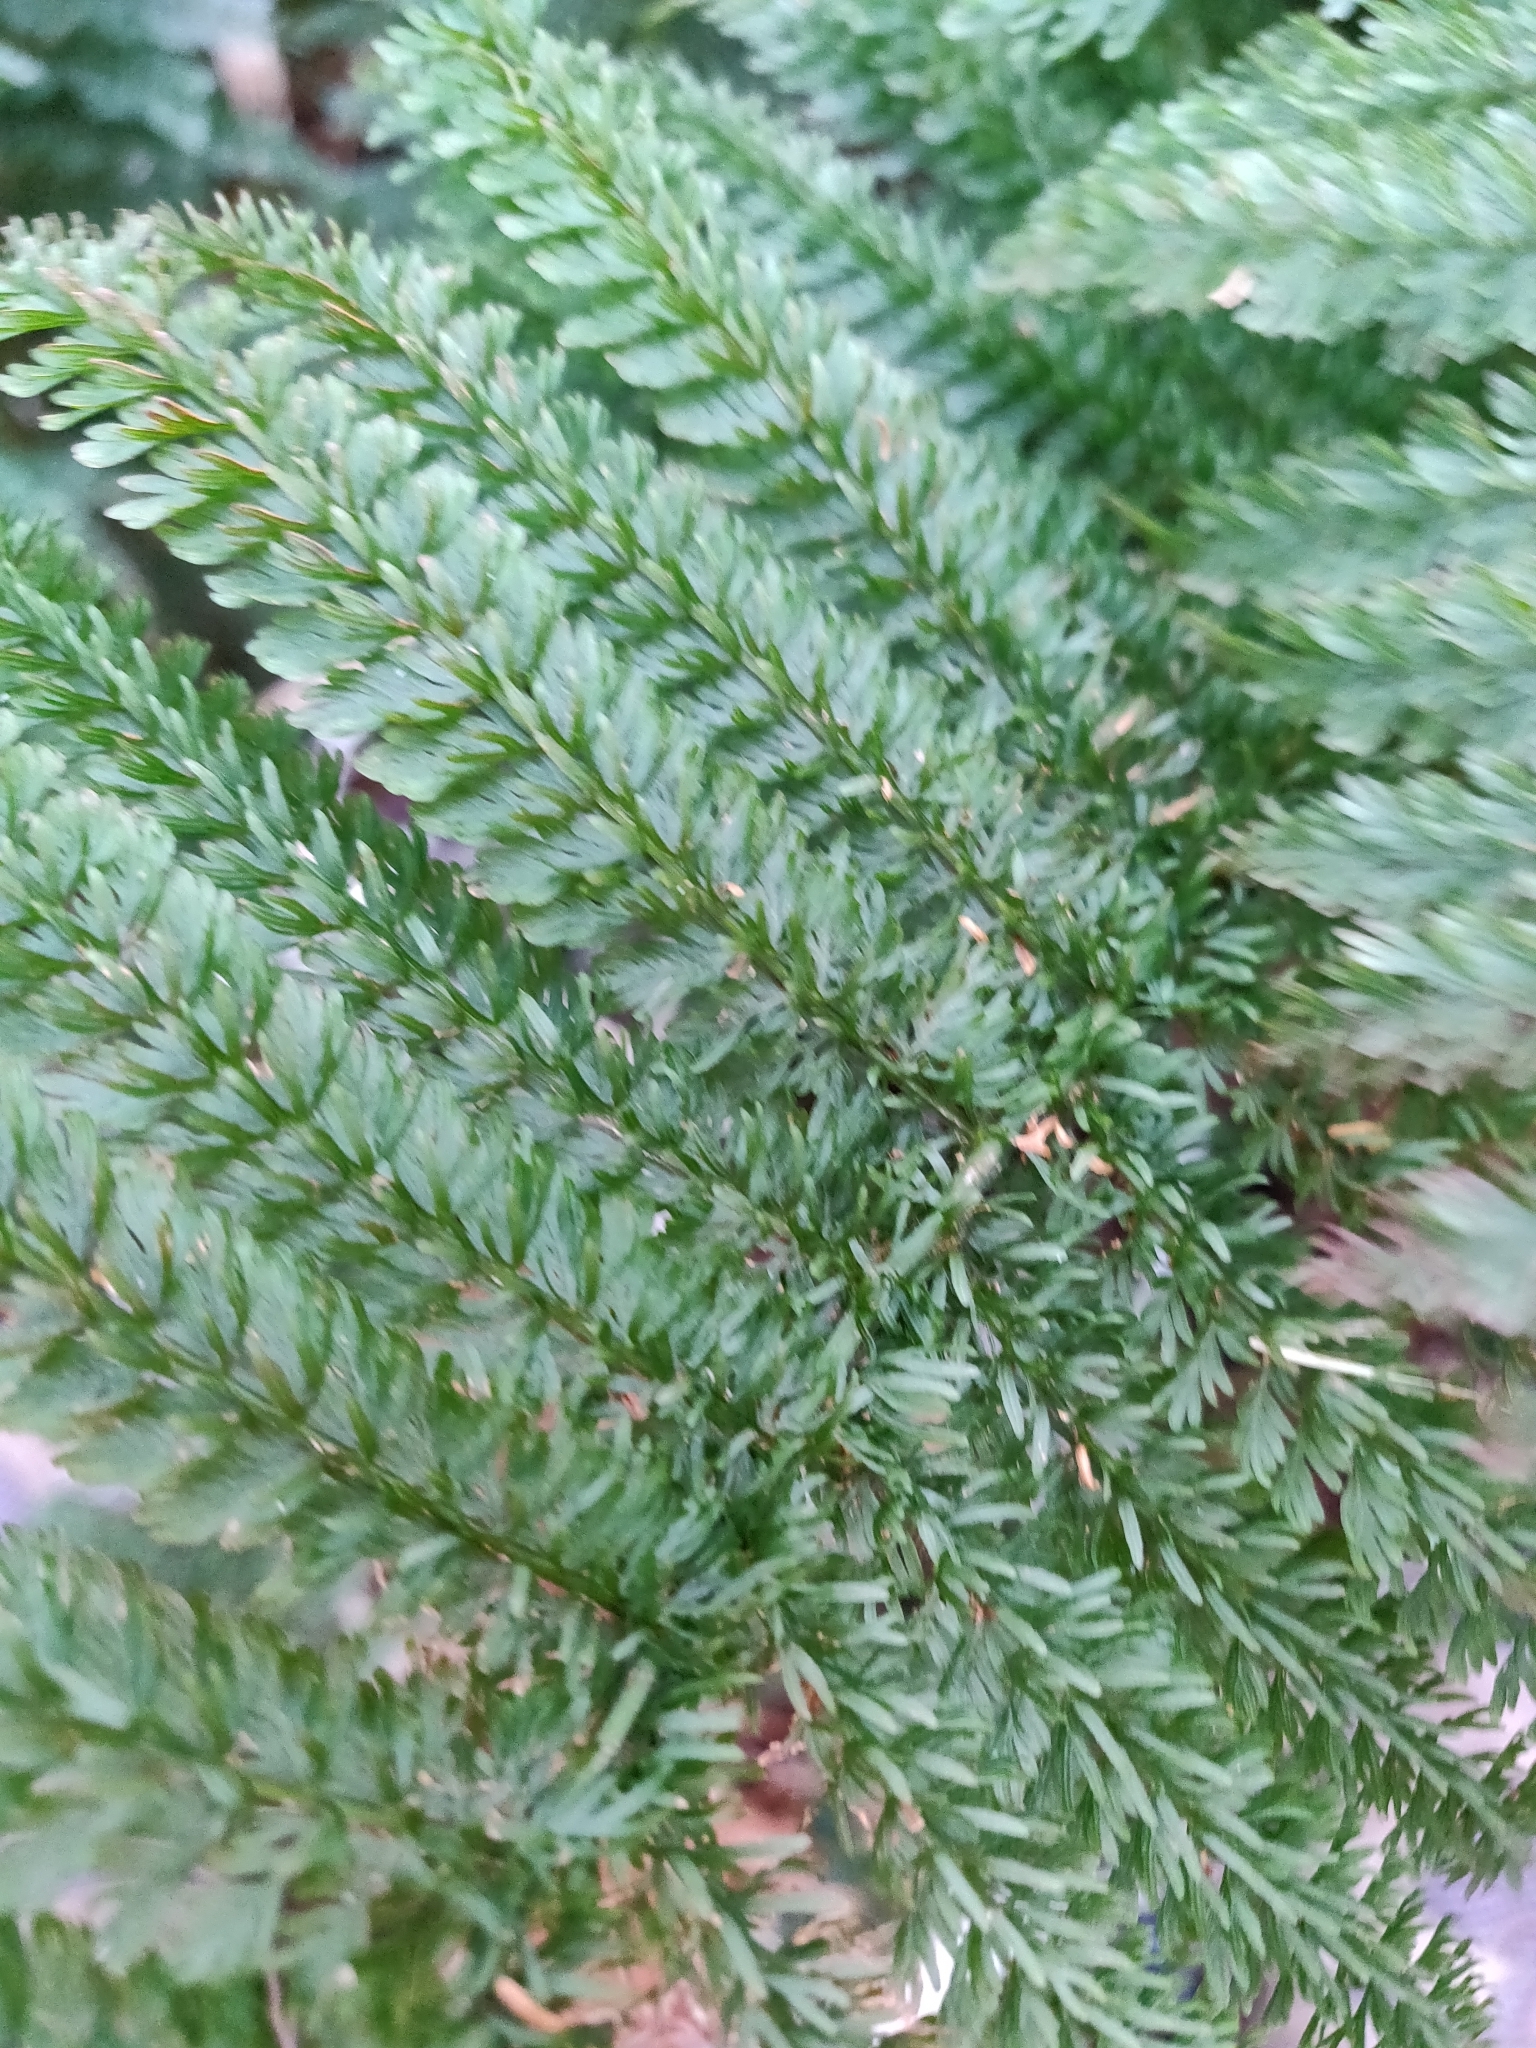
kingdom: Plantae
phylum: Tracheophyta
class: Polypodiopsida
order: Osmundales
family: Osmundaceae
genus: Leptopteris
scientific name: Leptopteris superba
